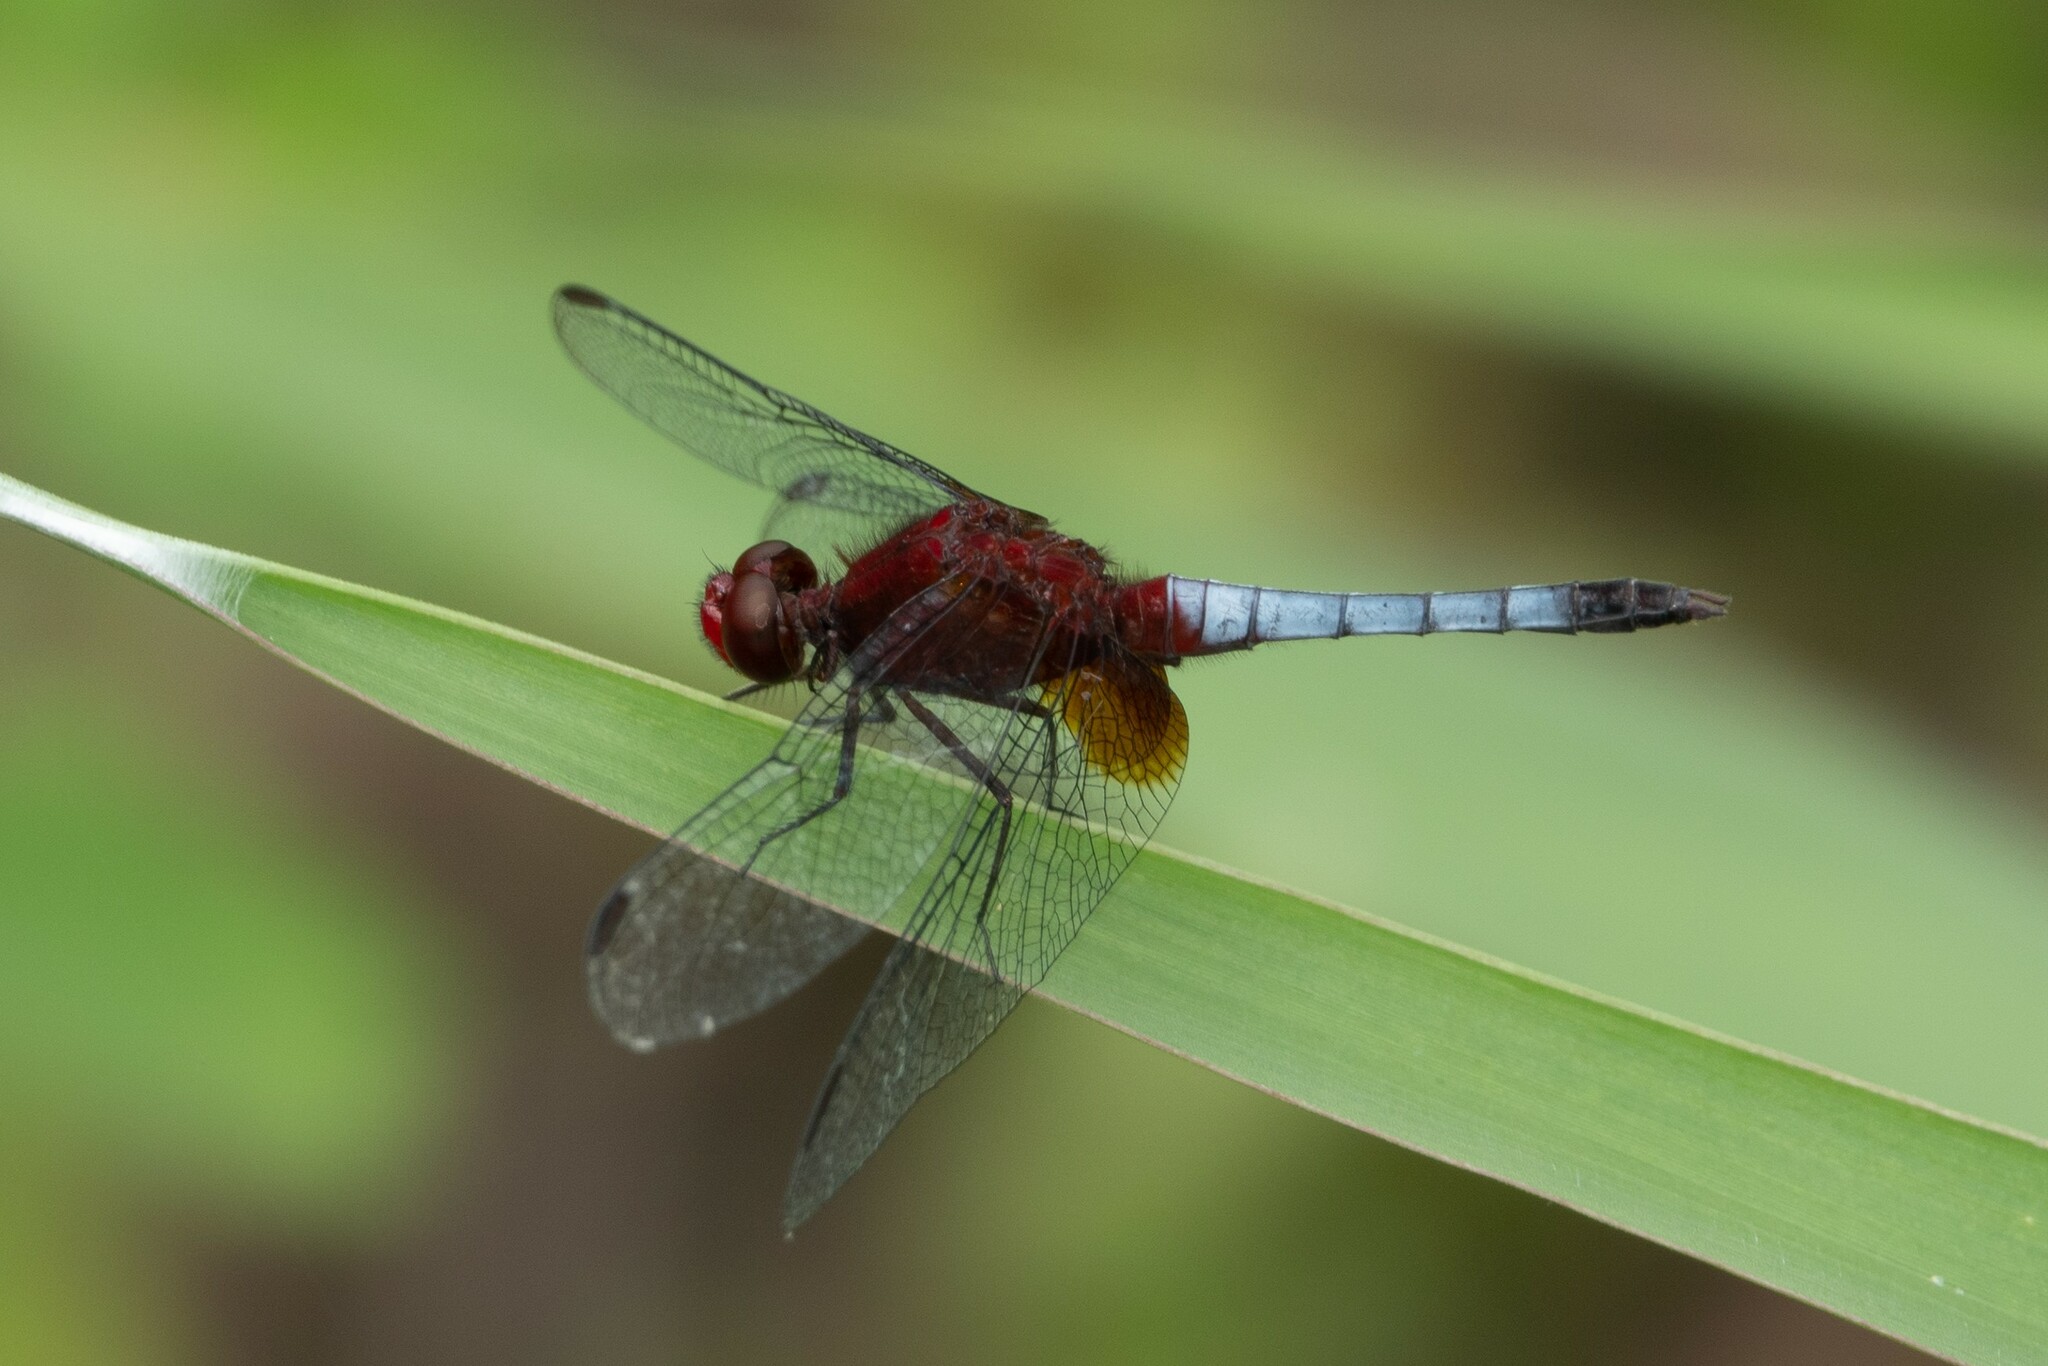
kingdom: Animalia
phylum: Arthropoda
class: Insecta
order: Odonata
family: Libellulidae
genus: Erythrodiplax
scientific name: Erythrodiplax fusca
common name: Red-faced dragonlet
